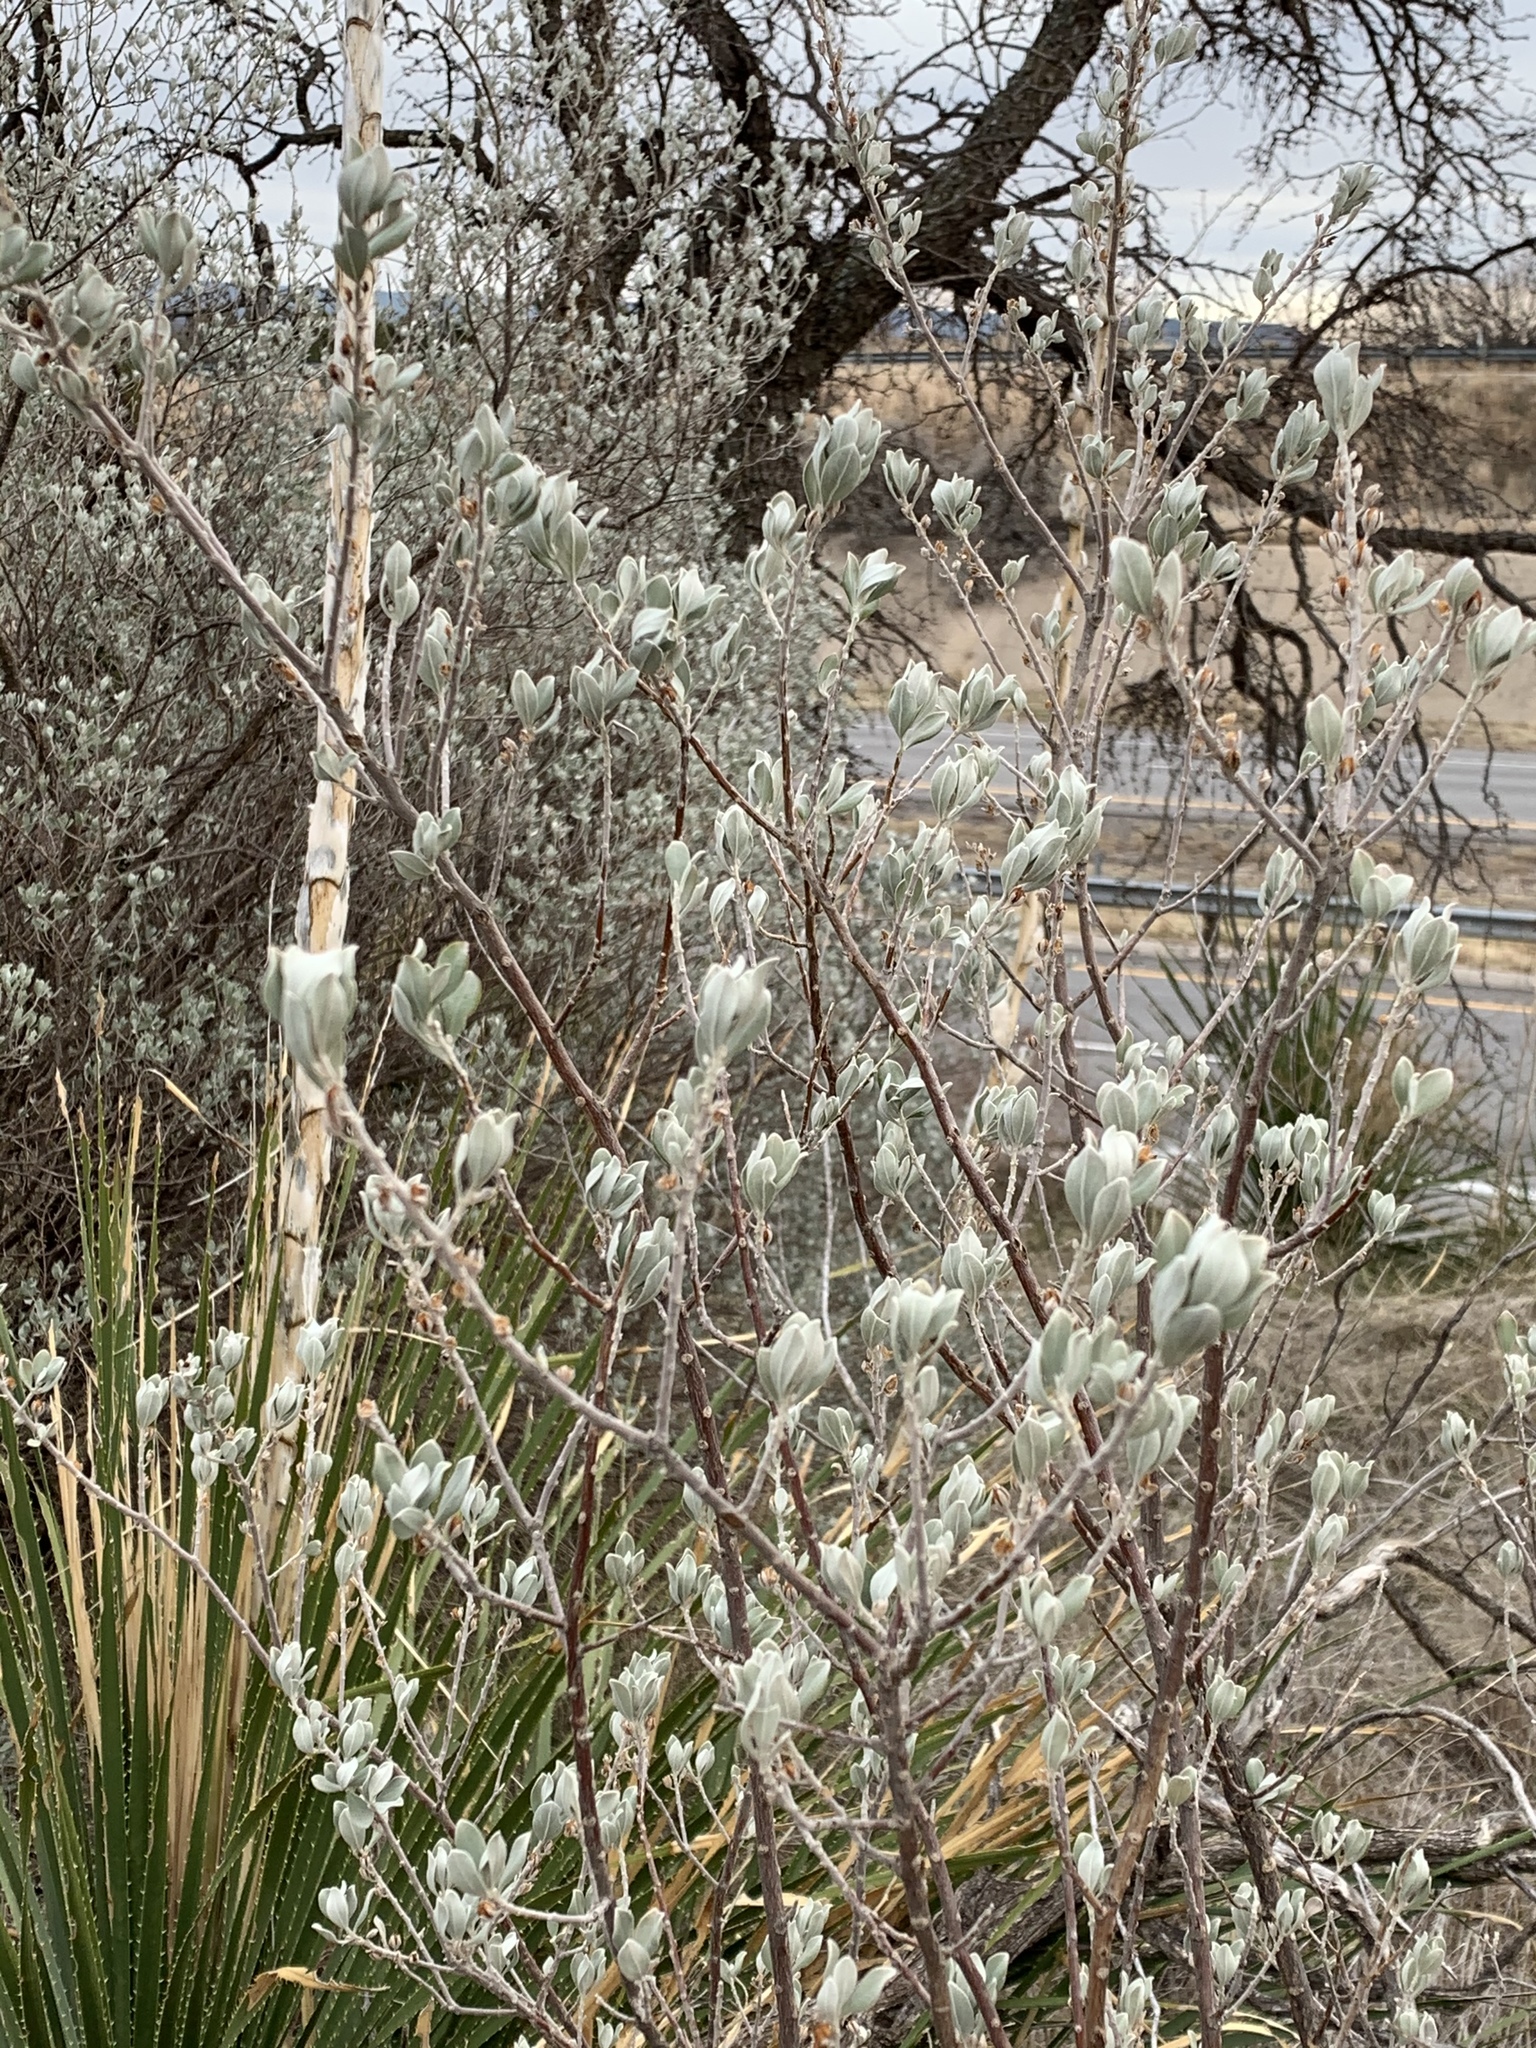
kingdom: Plantae
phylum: Tracheophyta
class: Magnoliopsida
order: Lamiales
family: Scrophulariaceae
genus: Leucophyllum
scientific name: Leucophyllum frutescens
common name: Texas silverleaf
